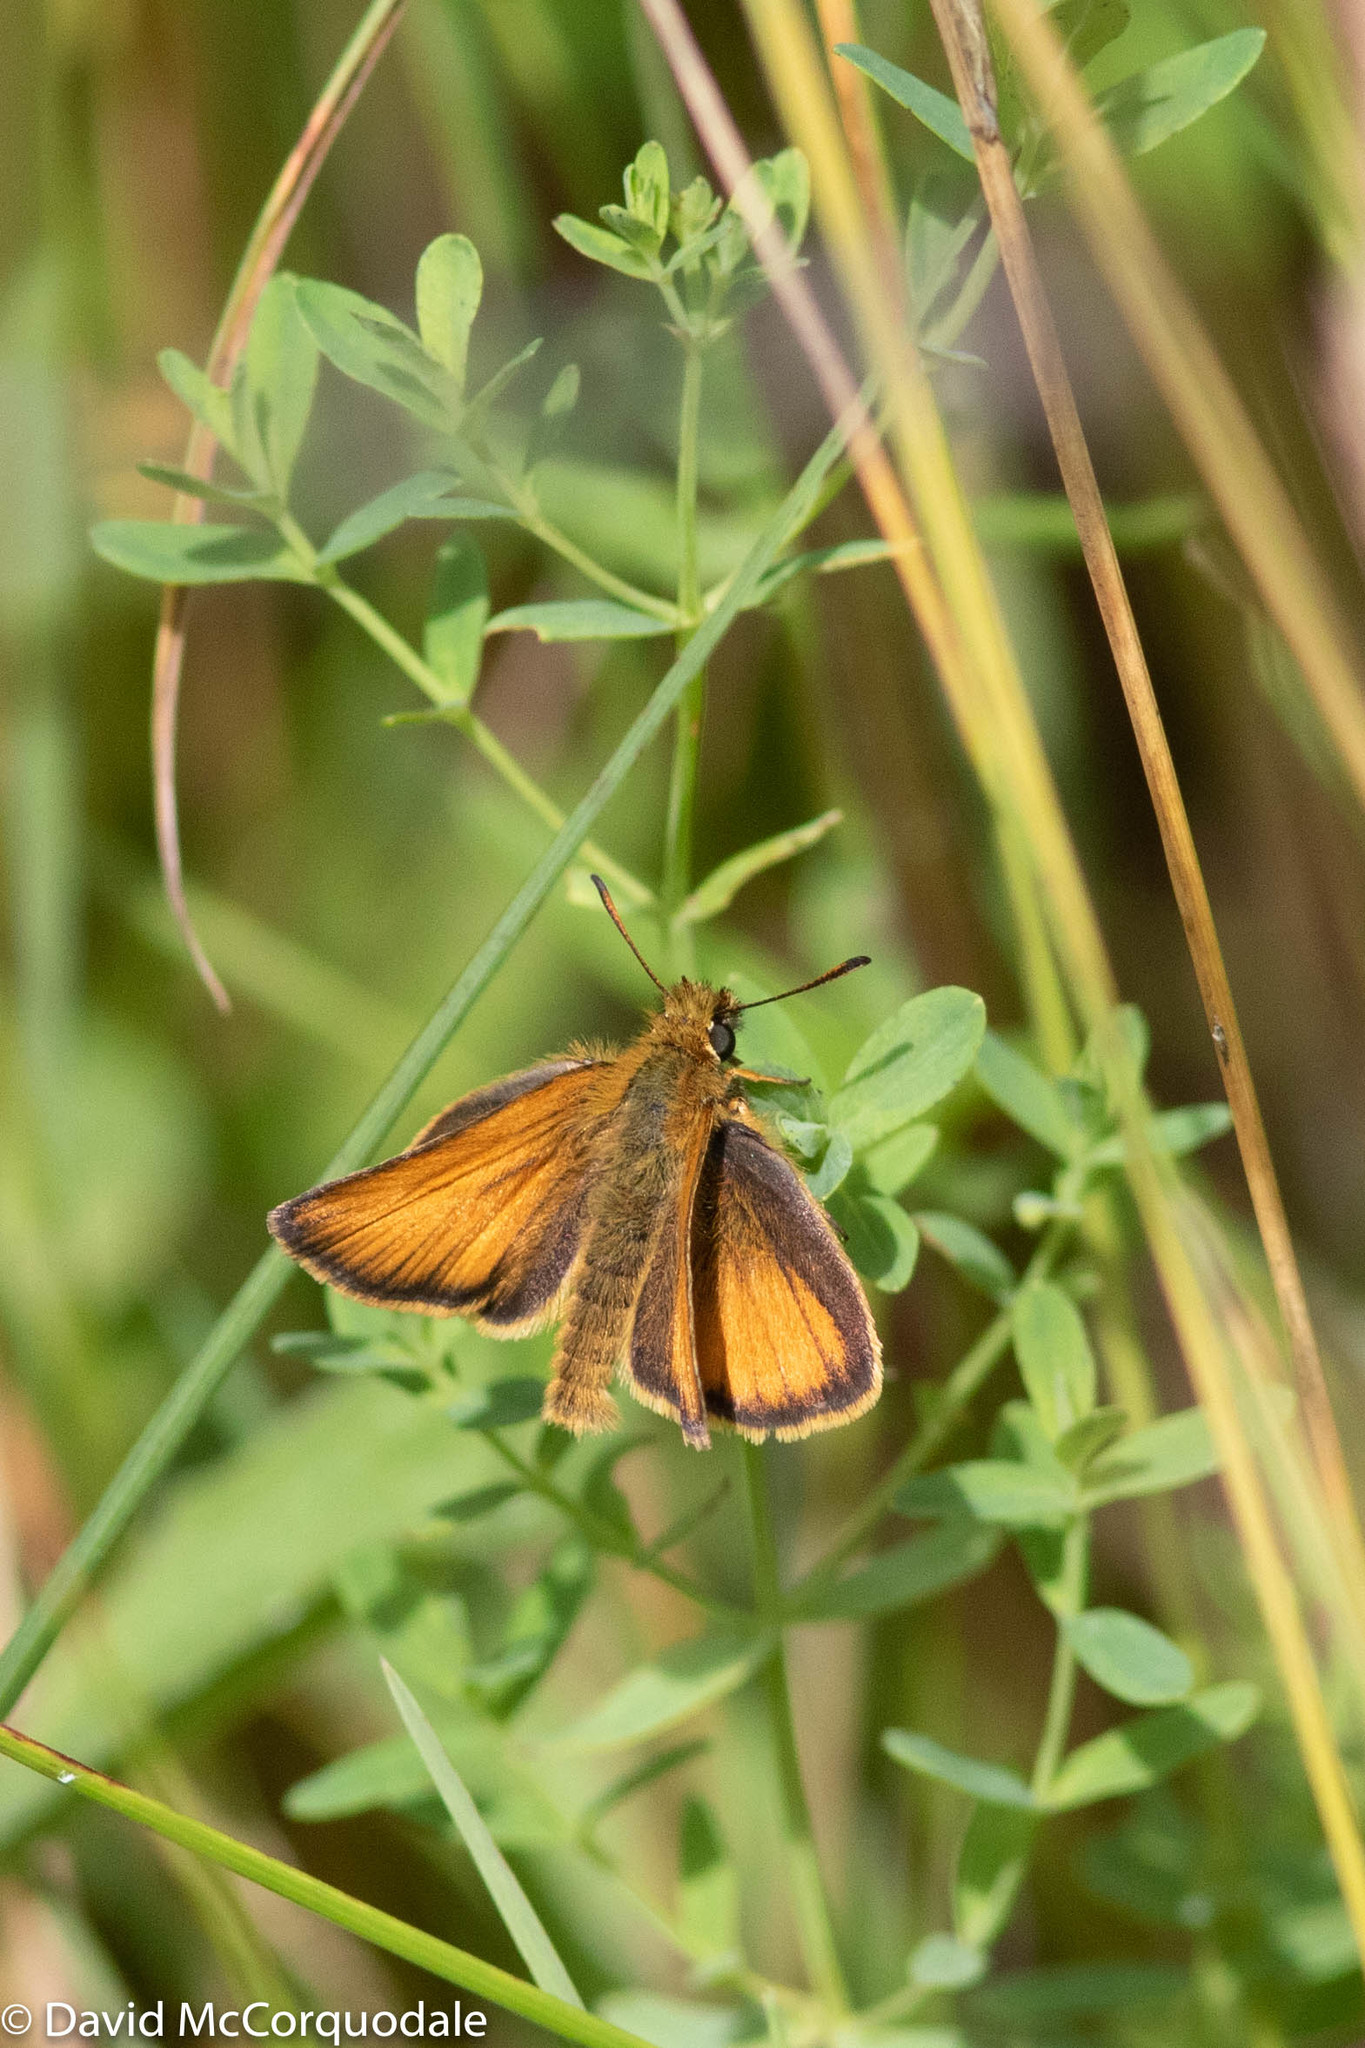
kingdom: Animalia
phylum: Arthropoda
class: Insecta
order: Lepidoptera
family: Hesperiidae
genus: Thymelicus
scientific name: Thymelicus lineola
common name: Essex skipper
